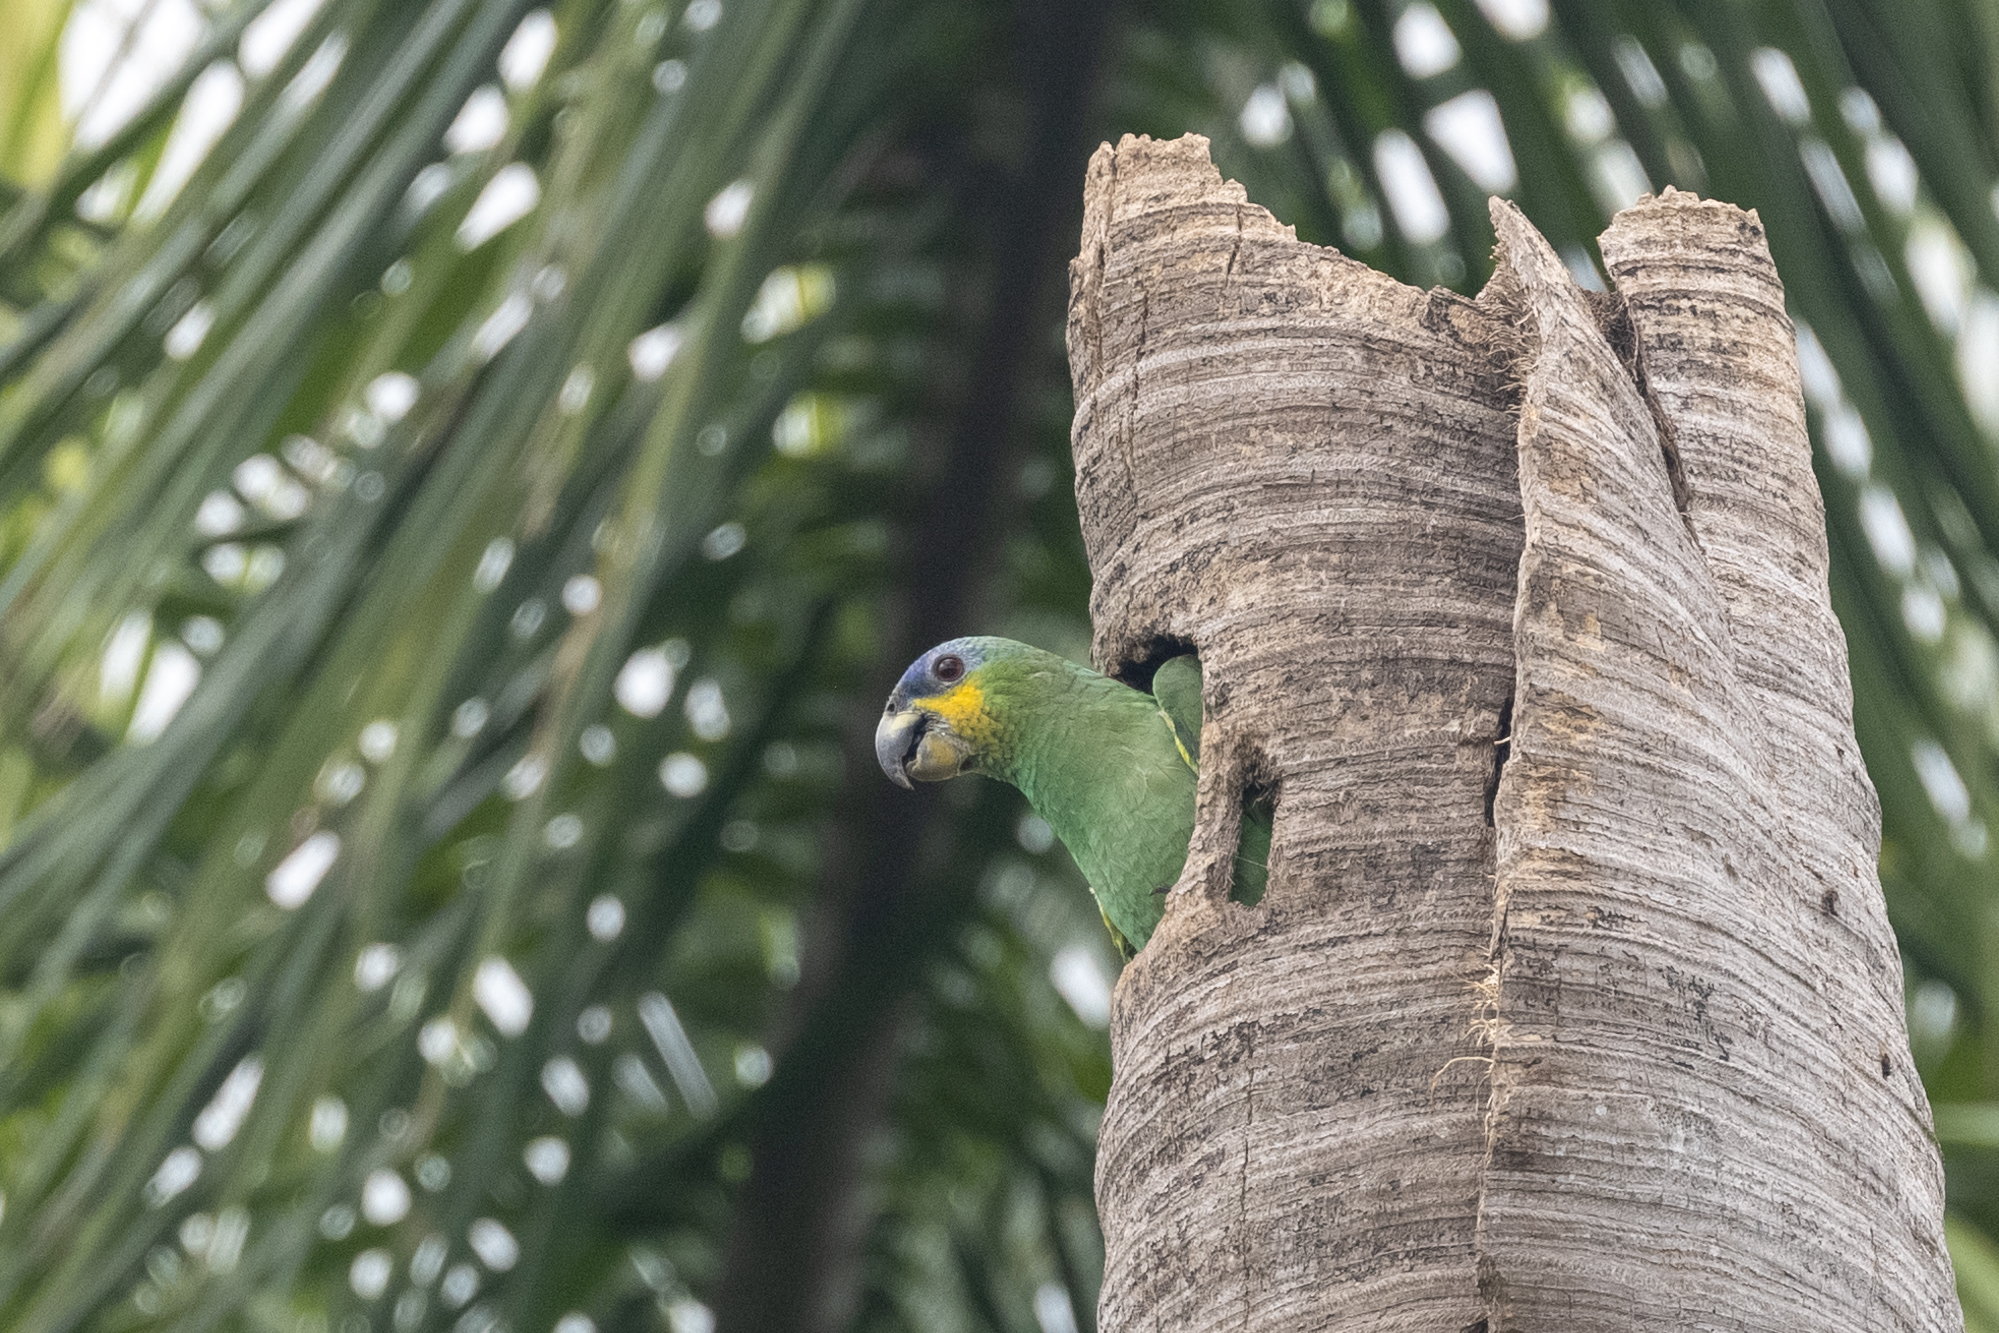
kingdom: Animalia
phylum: Chordata
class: Aves
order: Psittaciformes
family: Psittacidae
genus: Amazona
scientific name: Amazona amazonica
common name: Orange-winged amazon
